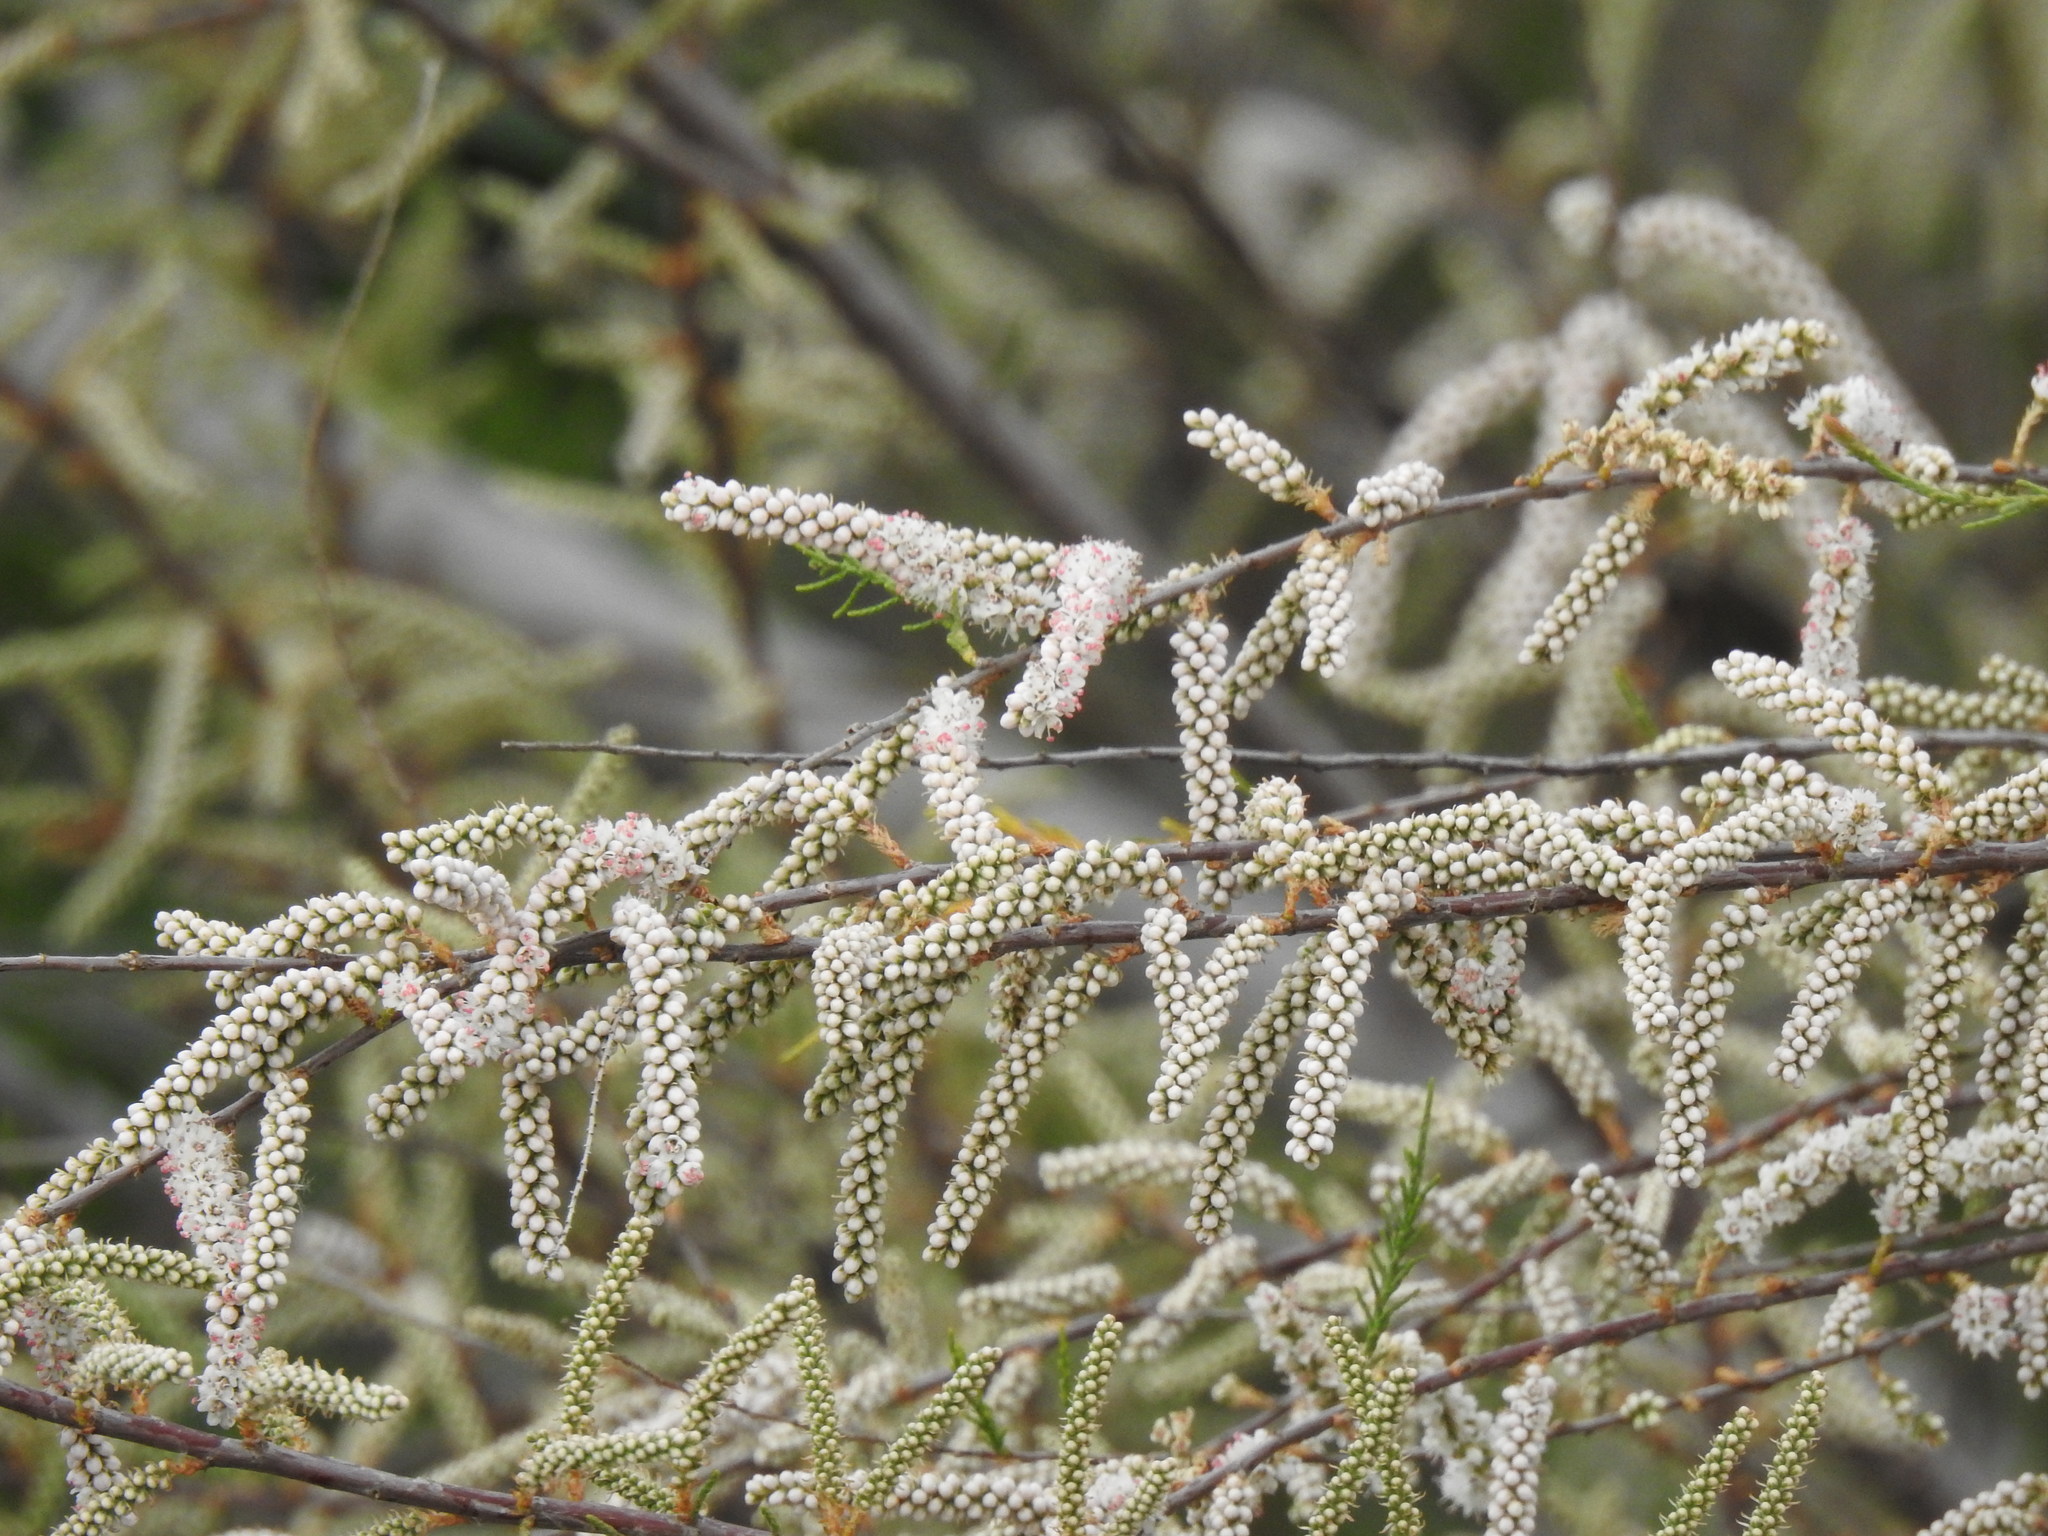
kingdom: Plantae
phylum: Tracheophyta
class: Magnoliopsida
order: Caryophyllales
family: Tamaricaceae
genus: Tamarix
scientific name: Tamarix africana
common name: African tamarisk
